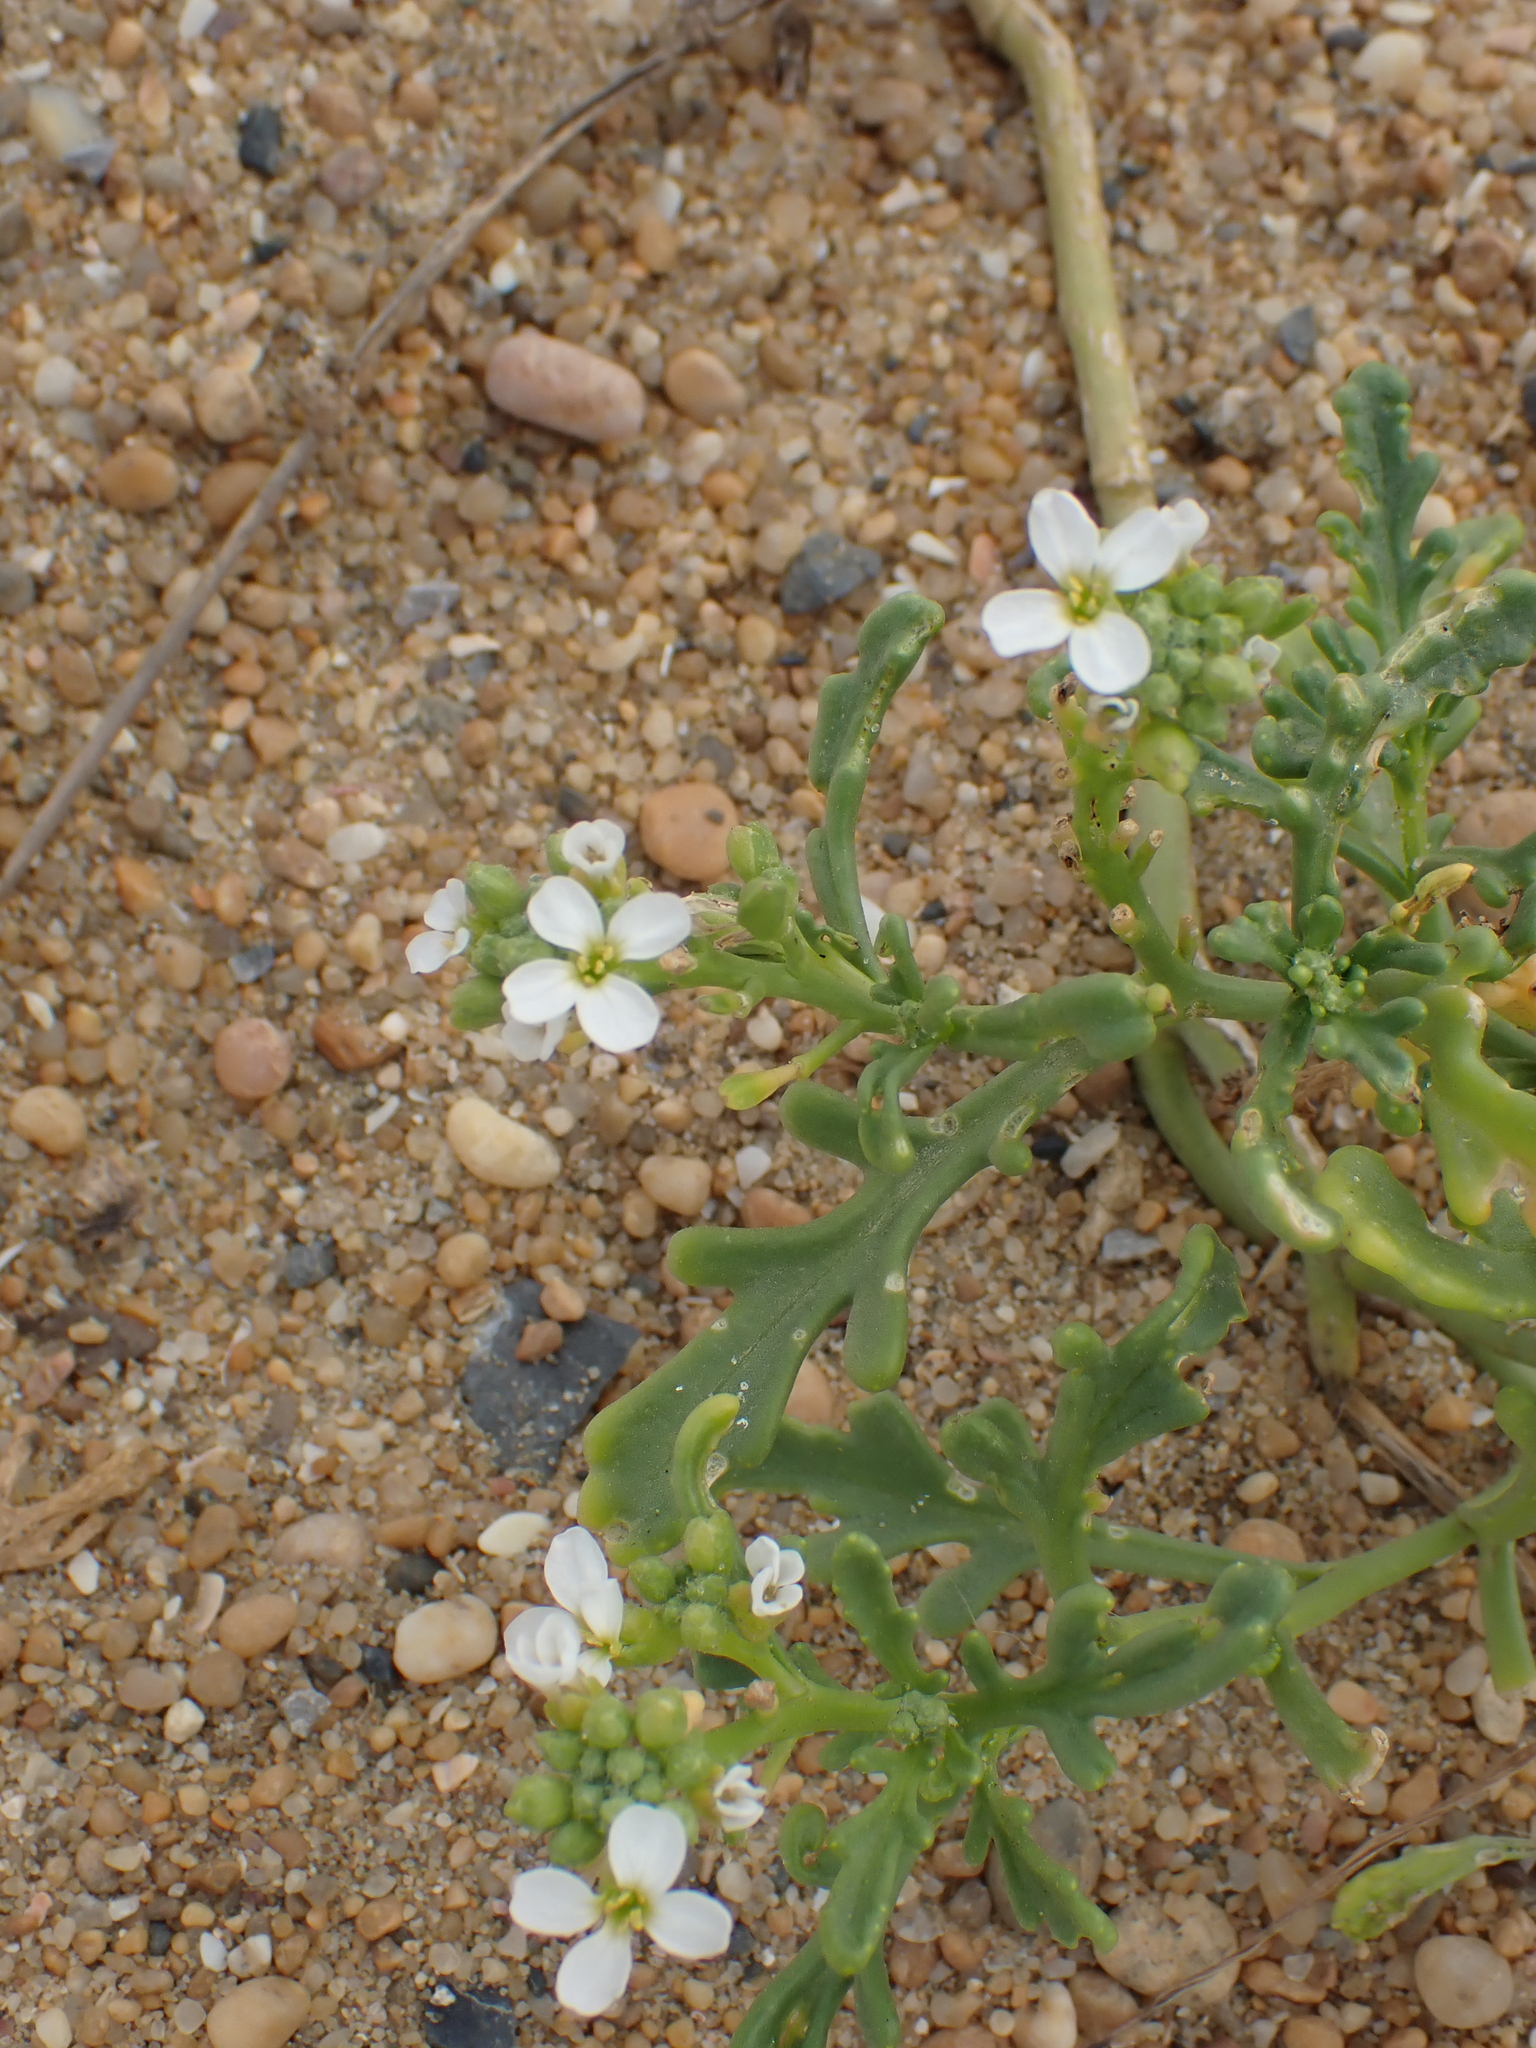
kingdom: Plantae
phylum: Tracheophyta
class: Magnoliopsida
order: Brassicales
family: Brassicaceae
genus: Cakile
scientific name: Cakile maritima
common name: Sea rocket
